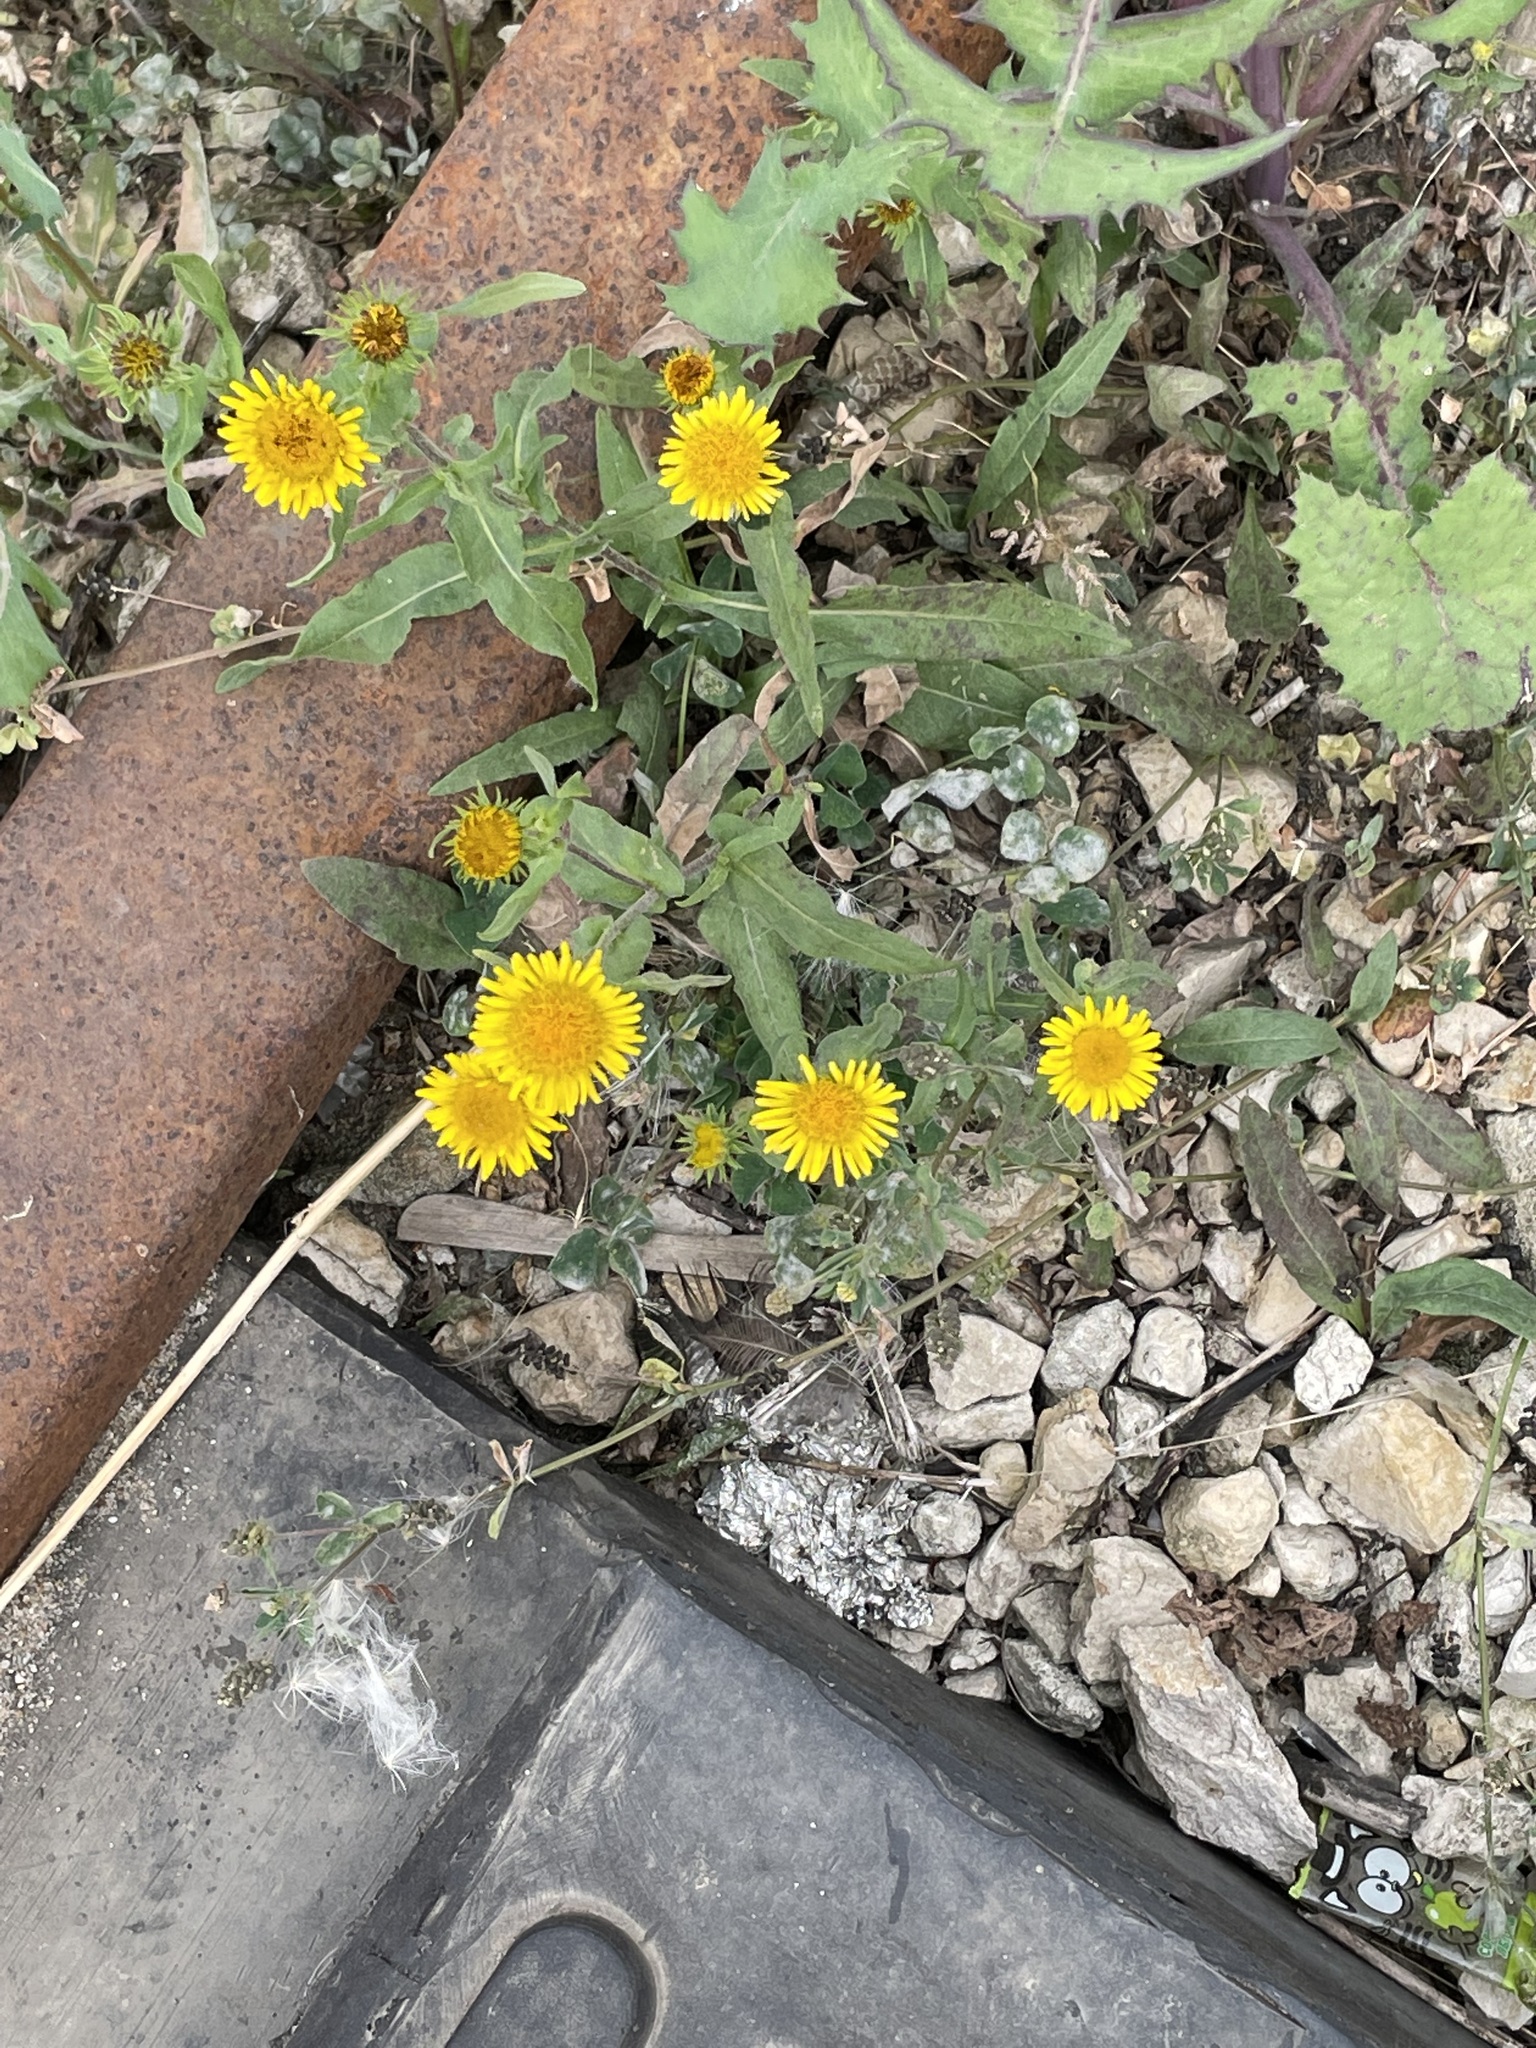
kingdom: Plantae
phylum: Tracheophyta
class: Magnoliopsida
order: Asterales
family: Asteraceae
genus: Pentanema
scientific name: Pentanema britannicum
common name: British elecampane
